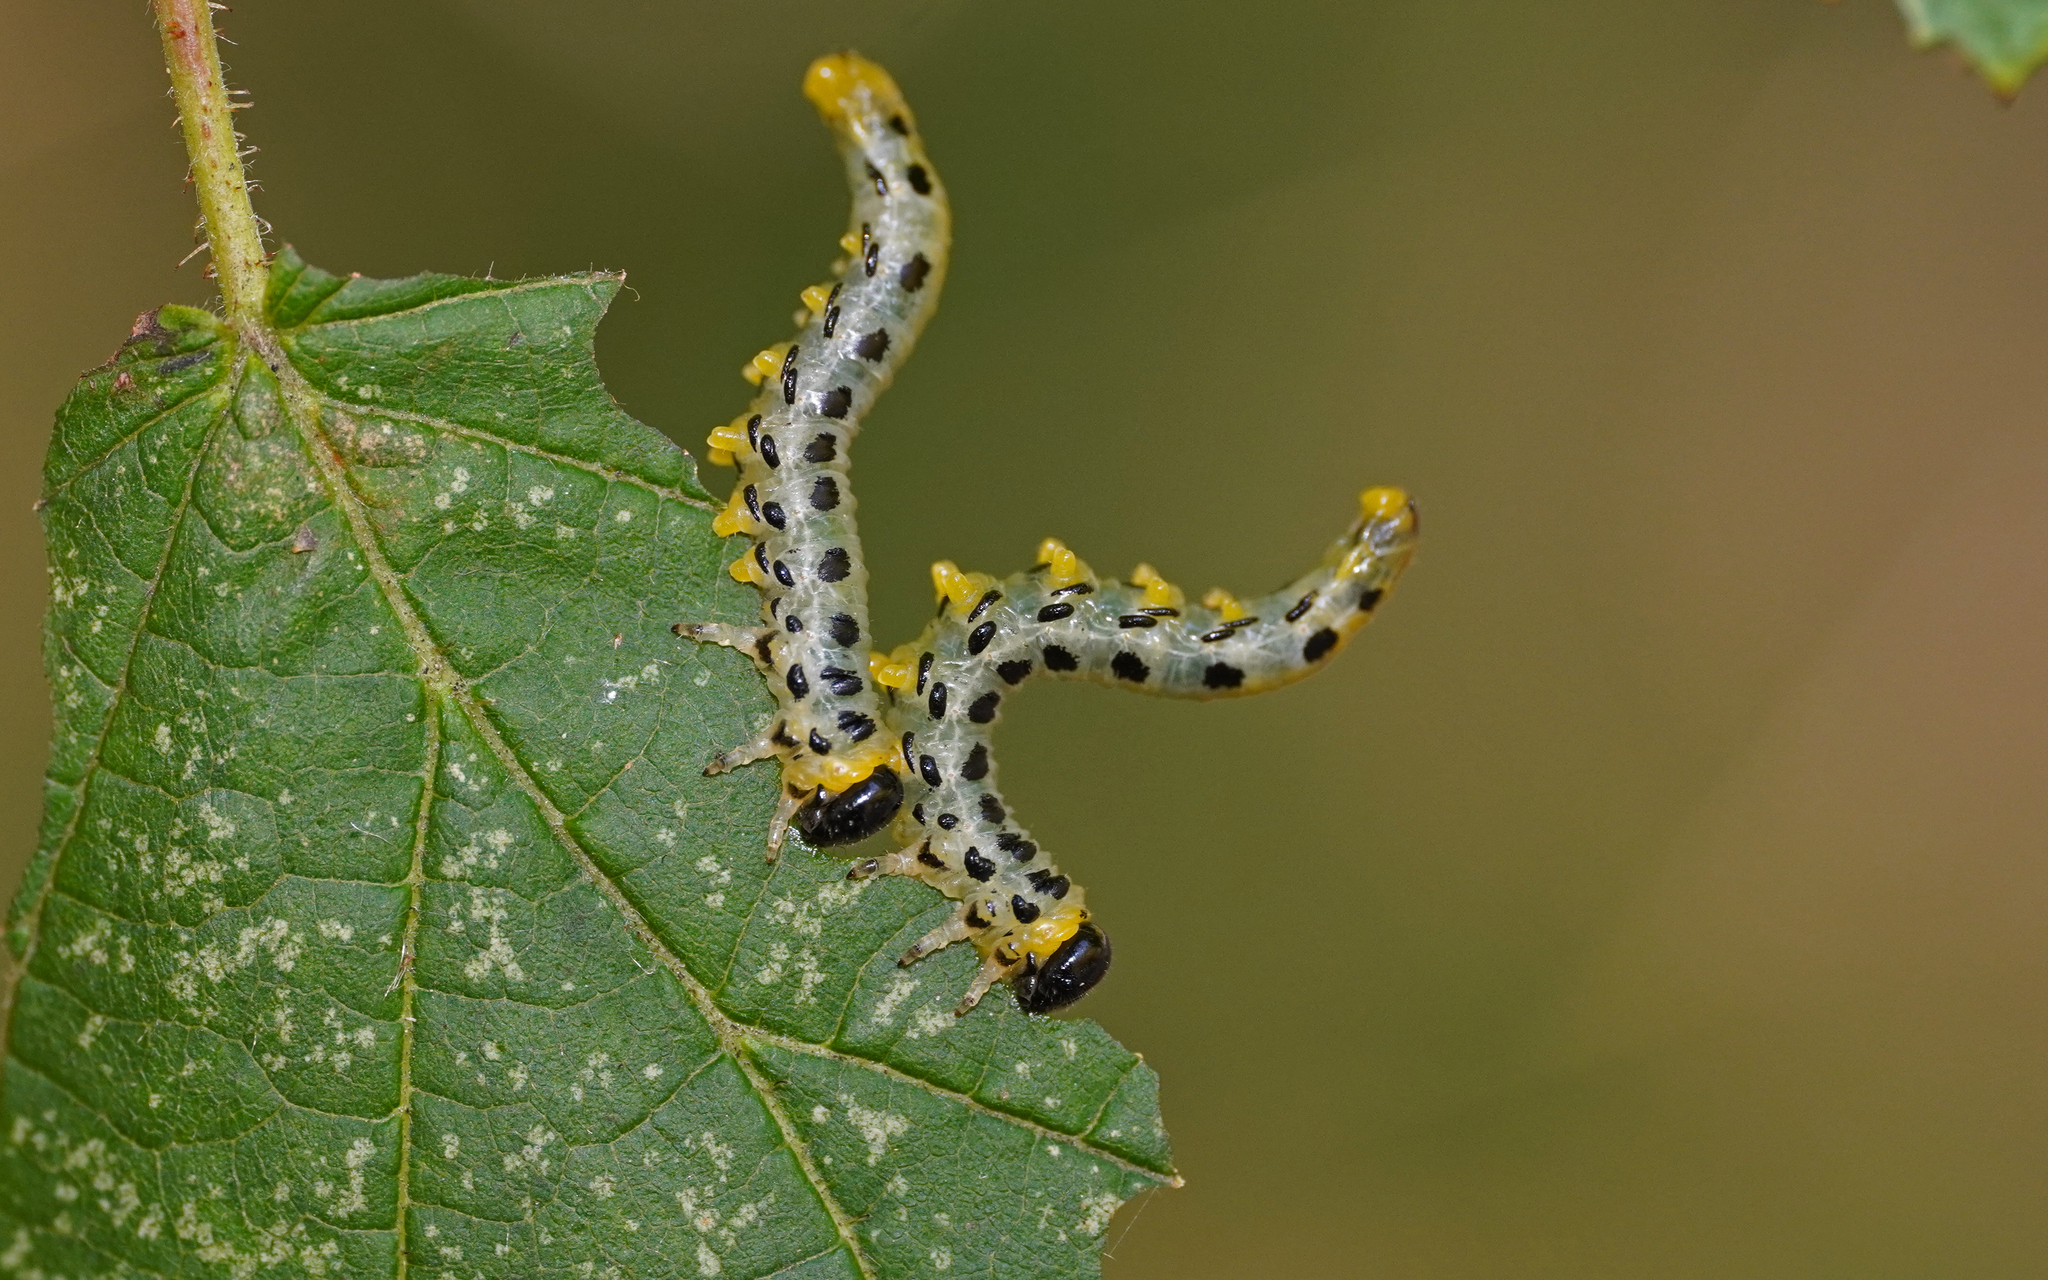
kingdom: Animalia
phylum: Arthropoda
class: Insecta
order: Hymenoptera
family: Tenthredinidae
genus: Craesus
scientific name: Craesus septentrionalis
